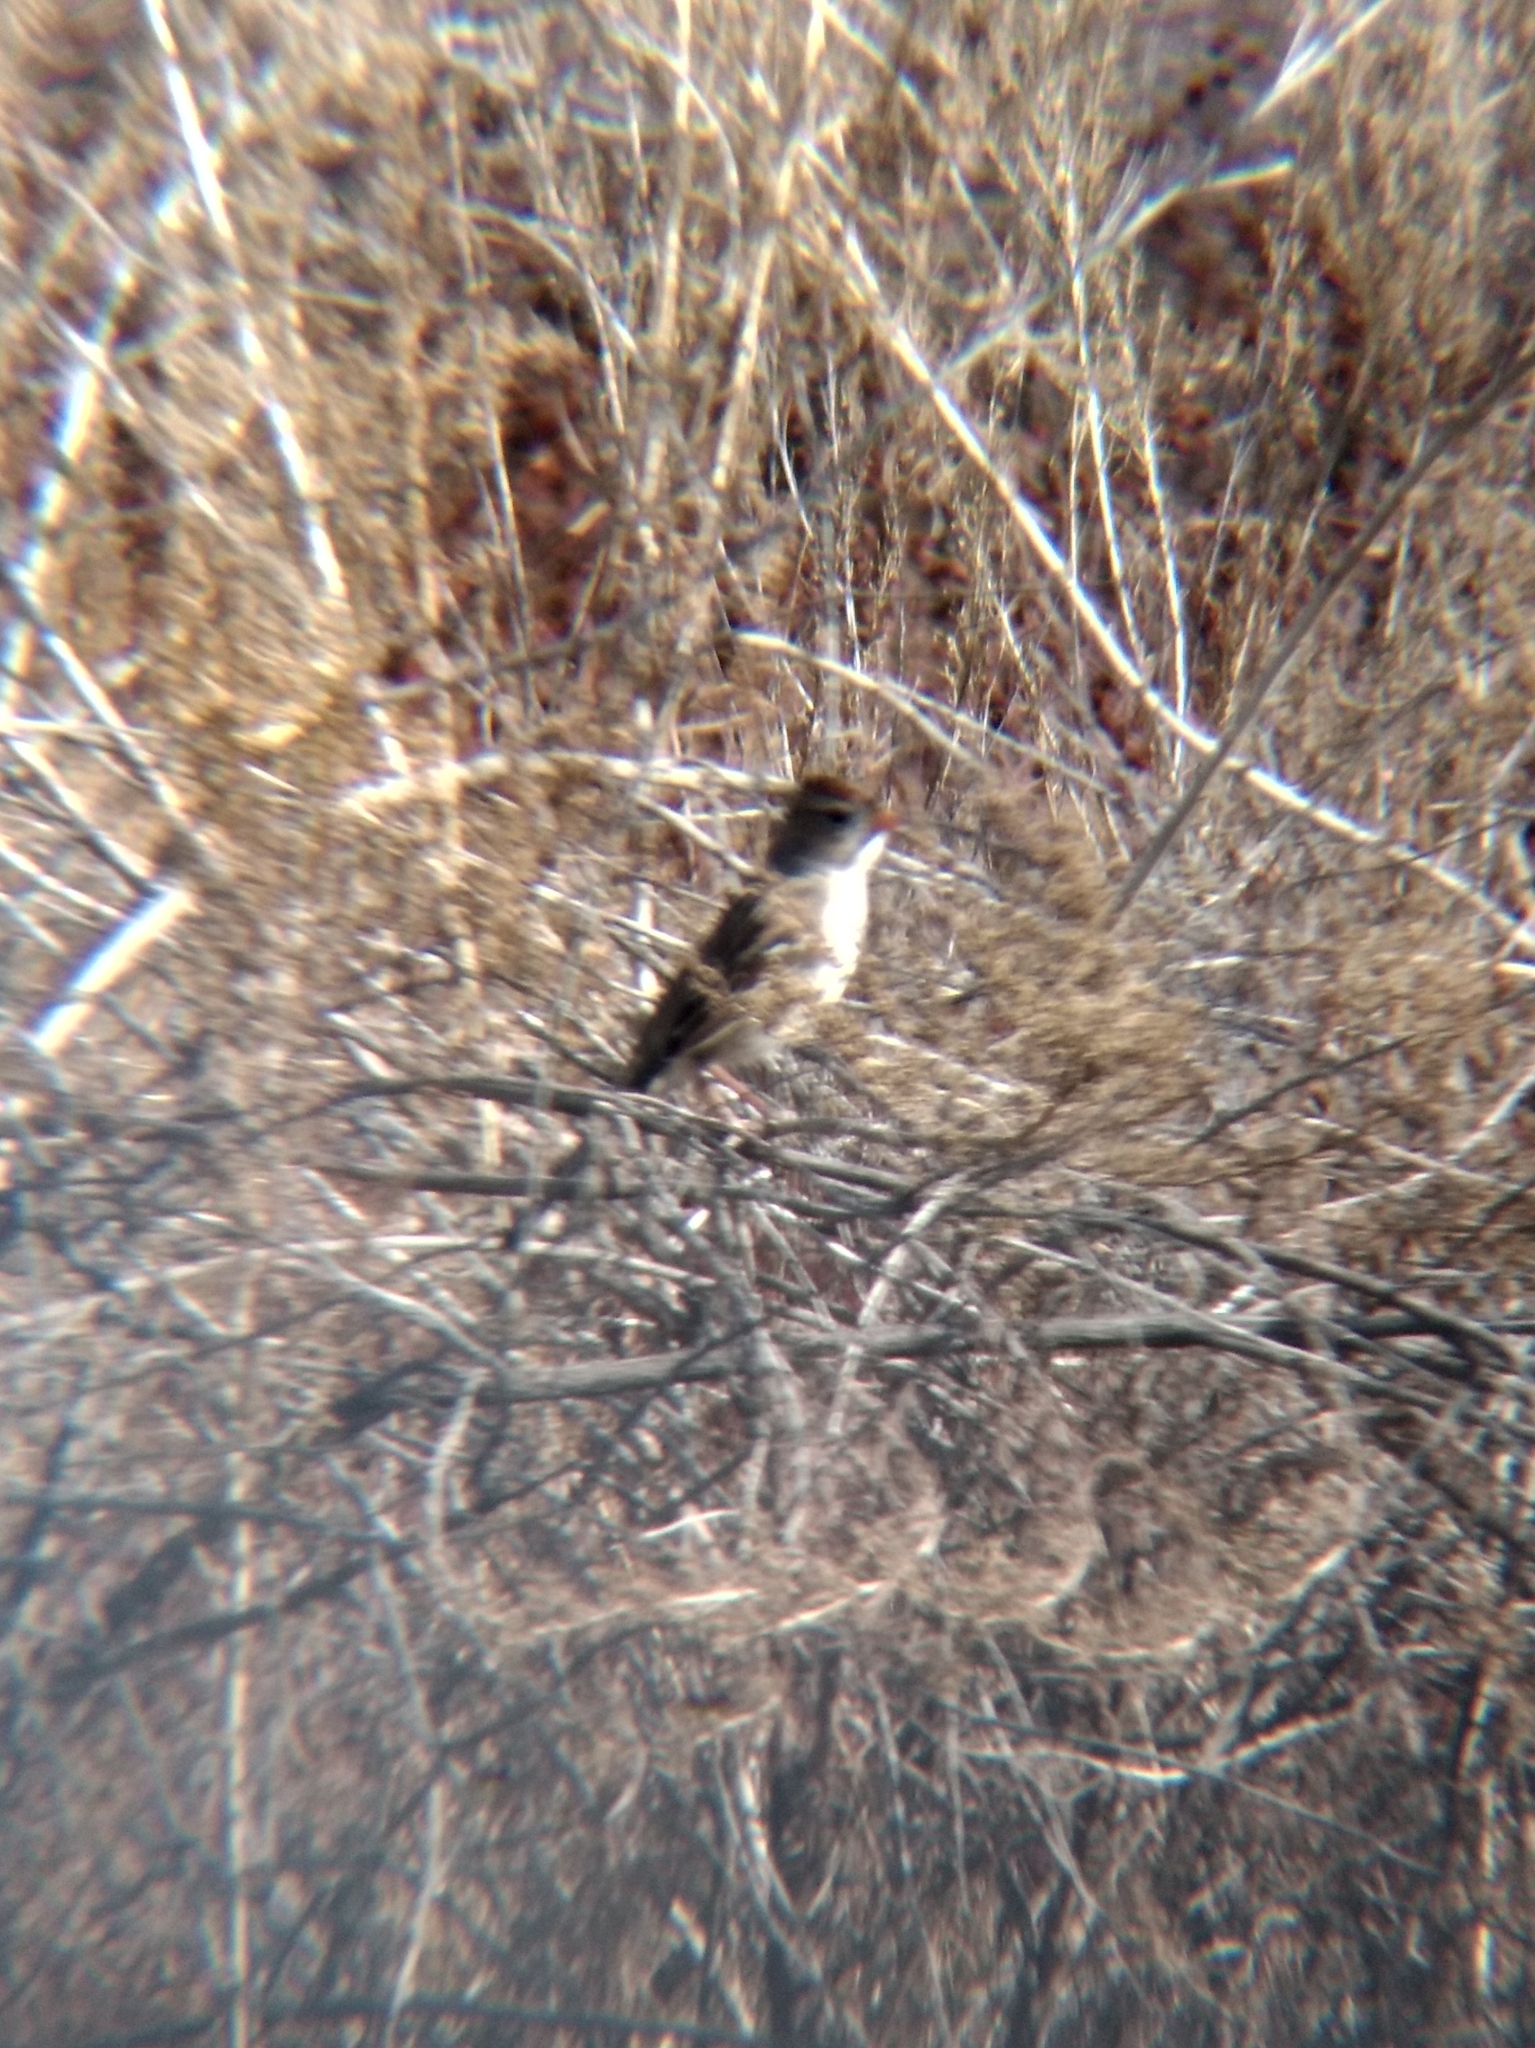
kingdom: Animalia
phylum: Chordata
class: Aves
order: Passeriformes
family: Passerellidae
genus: Zonotrichia
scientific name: Zonotrichia leucophrys
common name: White-crowned sparrow
